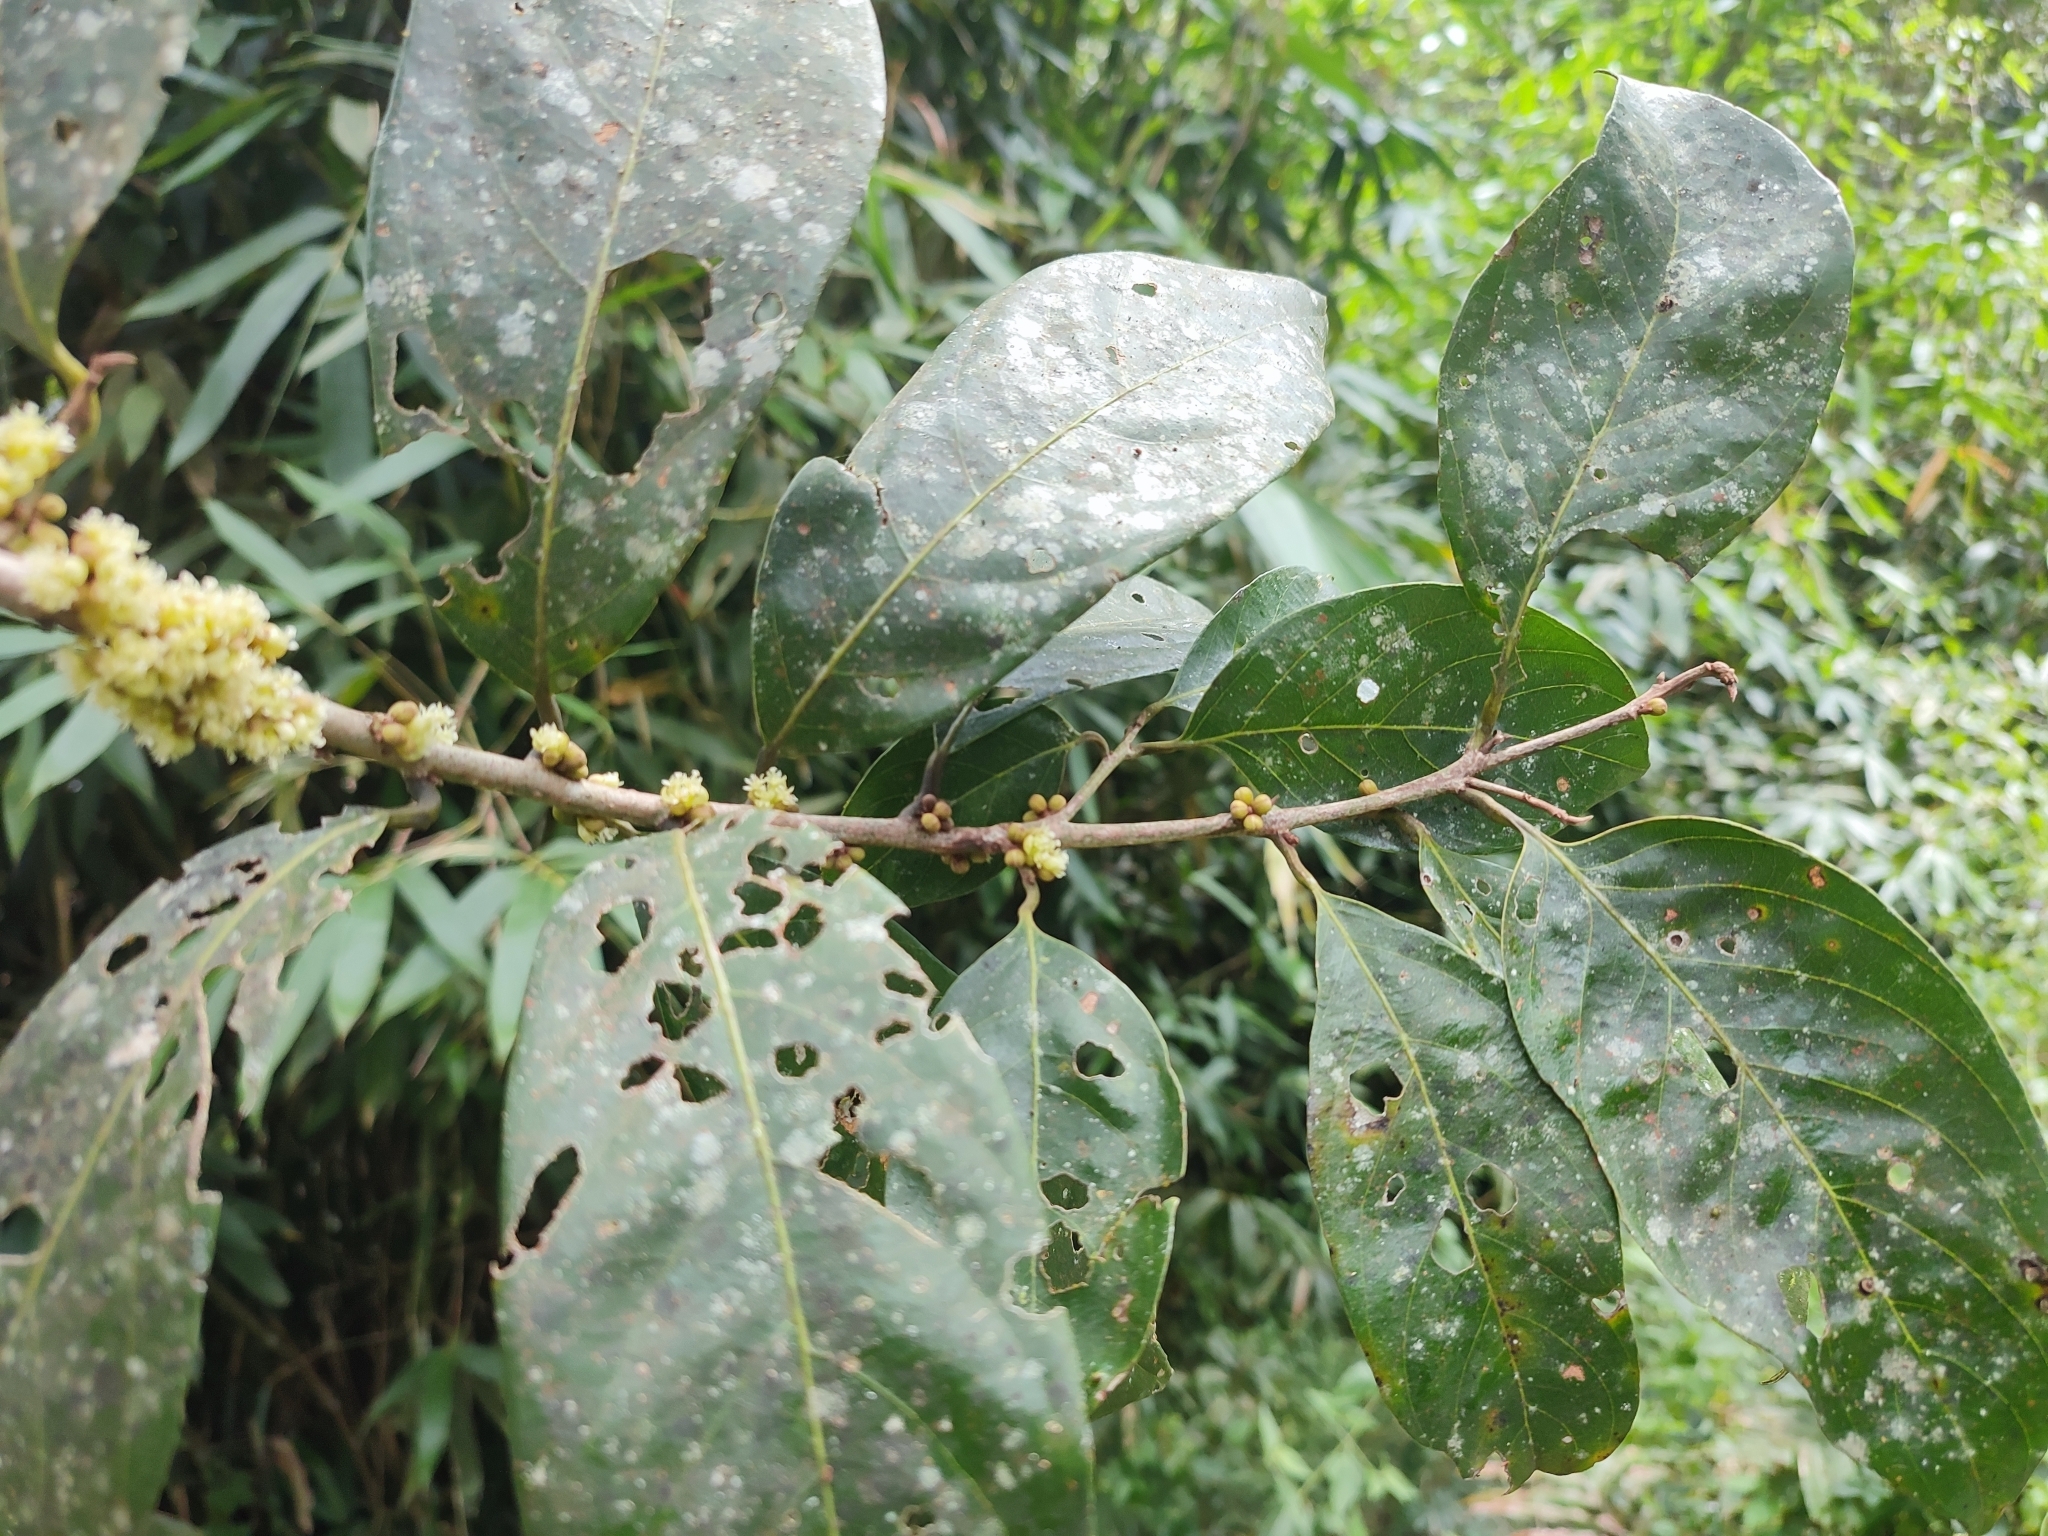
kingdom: Plantae
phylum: Tracheophyta
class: Magnoliopsida
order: Laurales
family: Lauraceae
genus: Litsea
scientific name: Litsea coriacea
